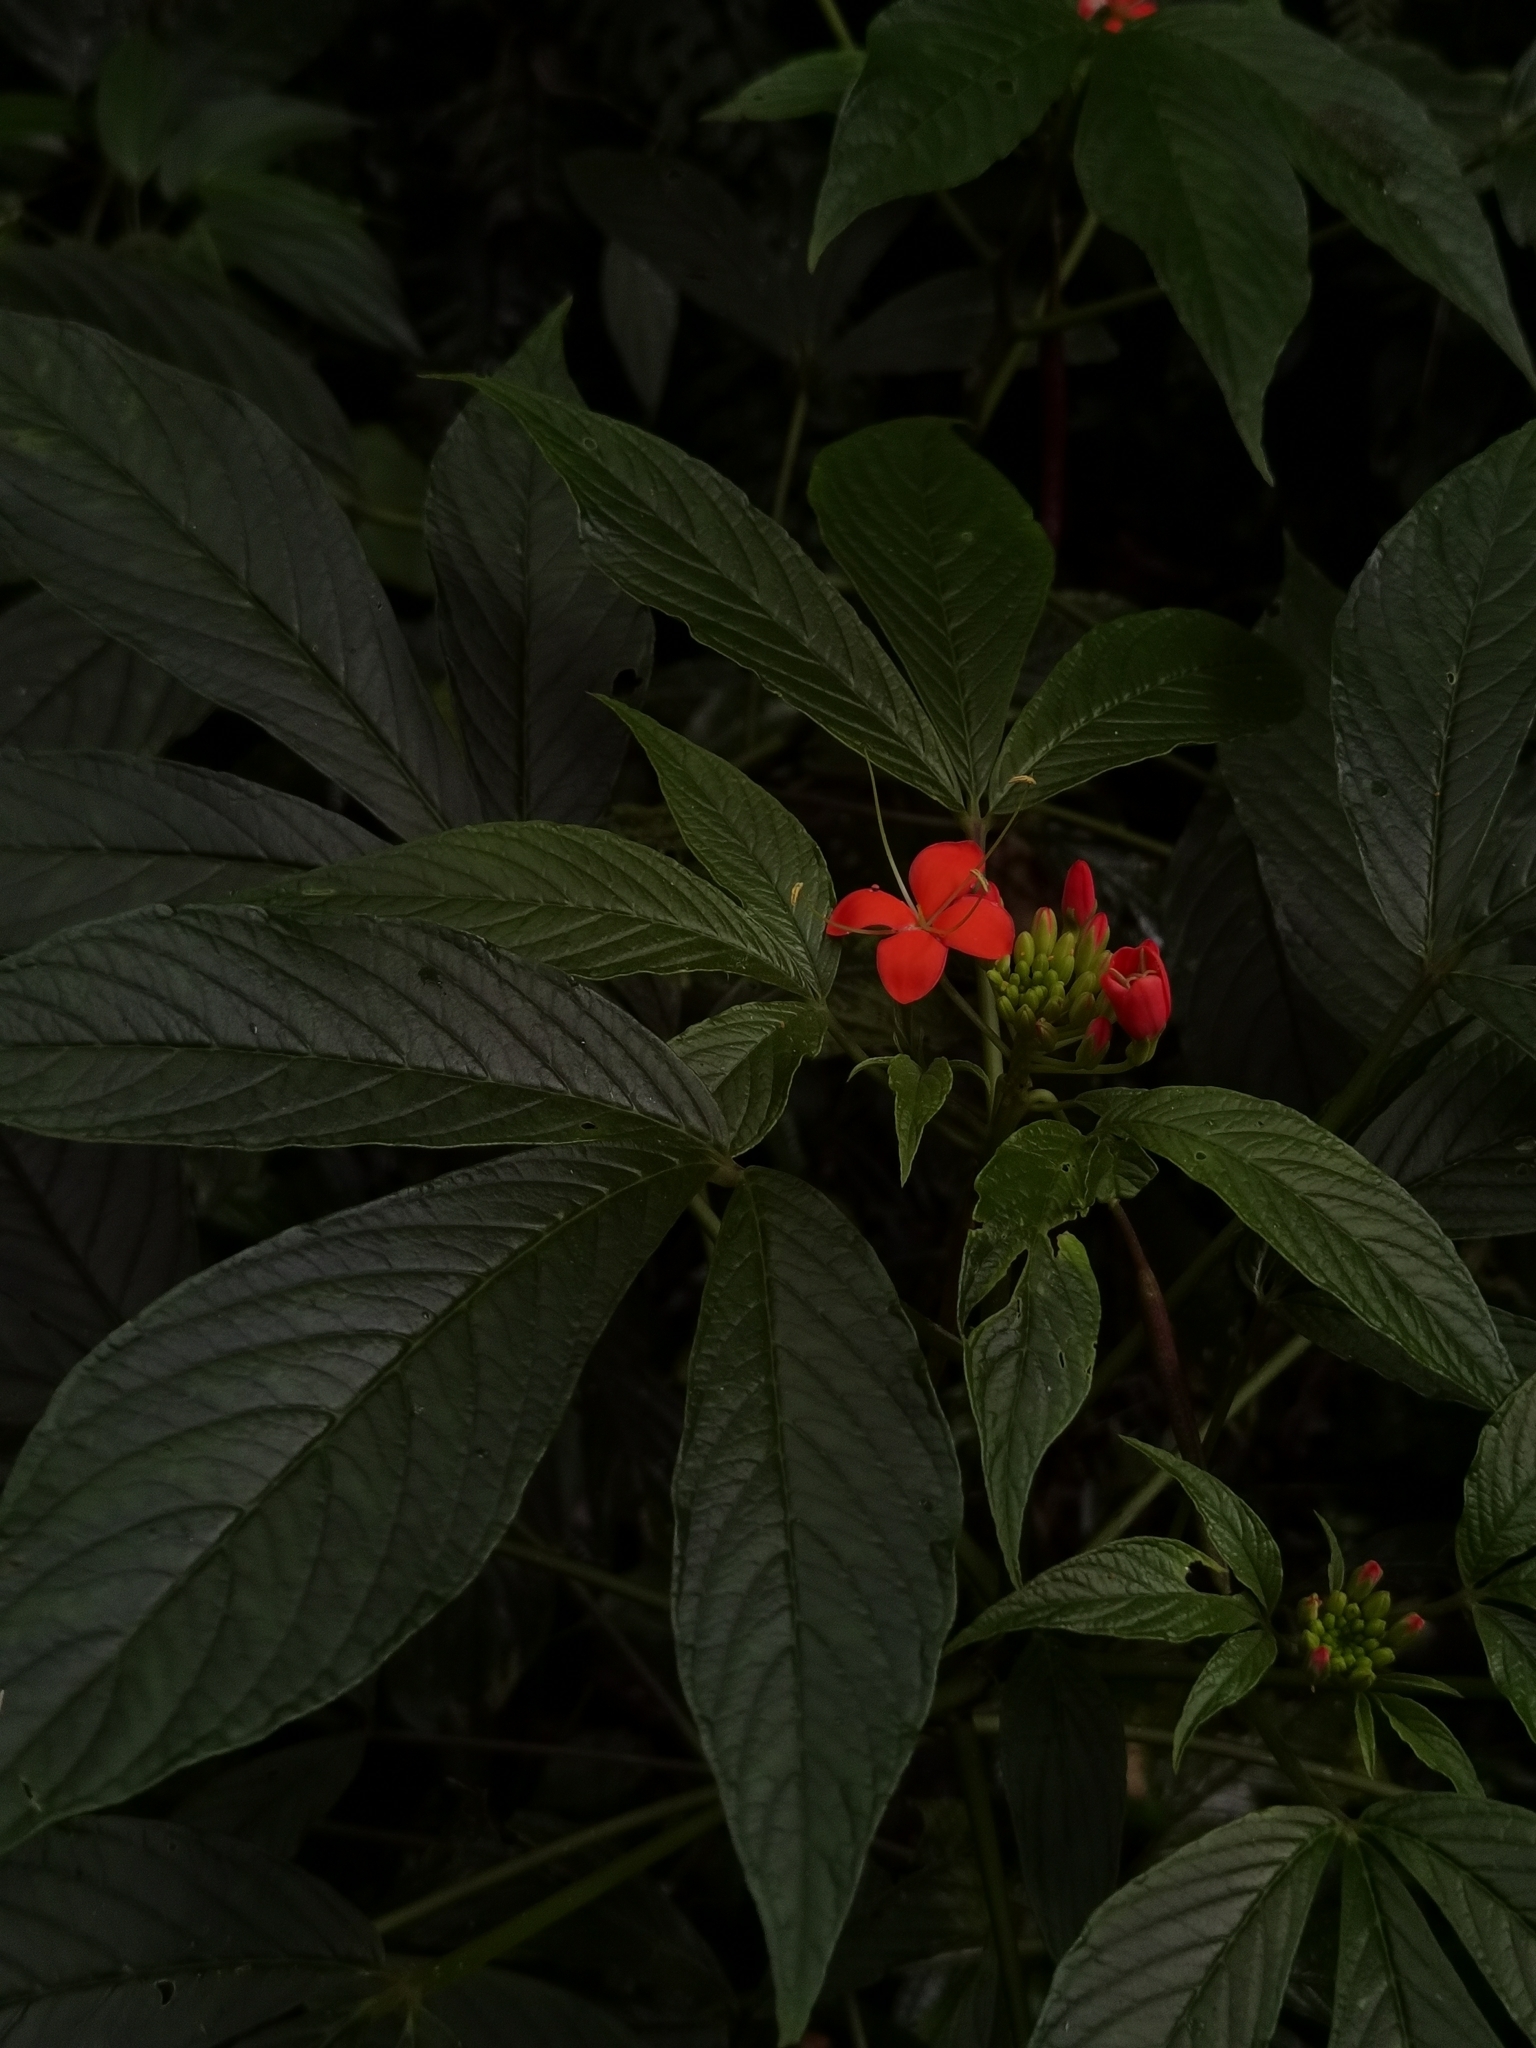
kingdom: Plantae
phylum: Tracheophyta
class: Magnoliopsida
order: Brassicales
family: Cleomaceae
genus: Podandrogyne
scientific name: Podandrogyne decipiens
